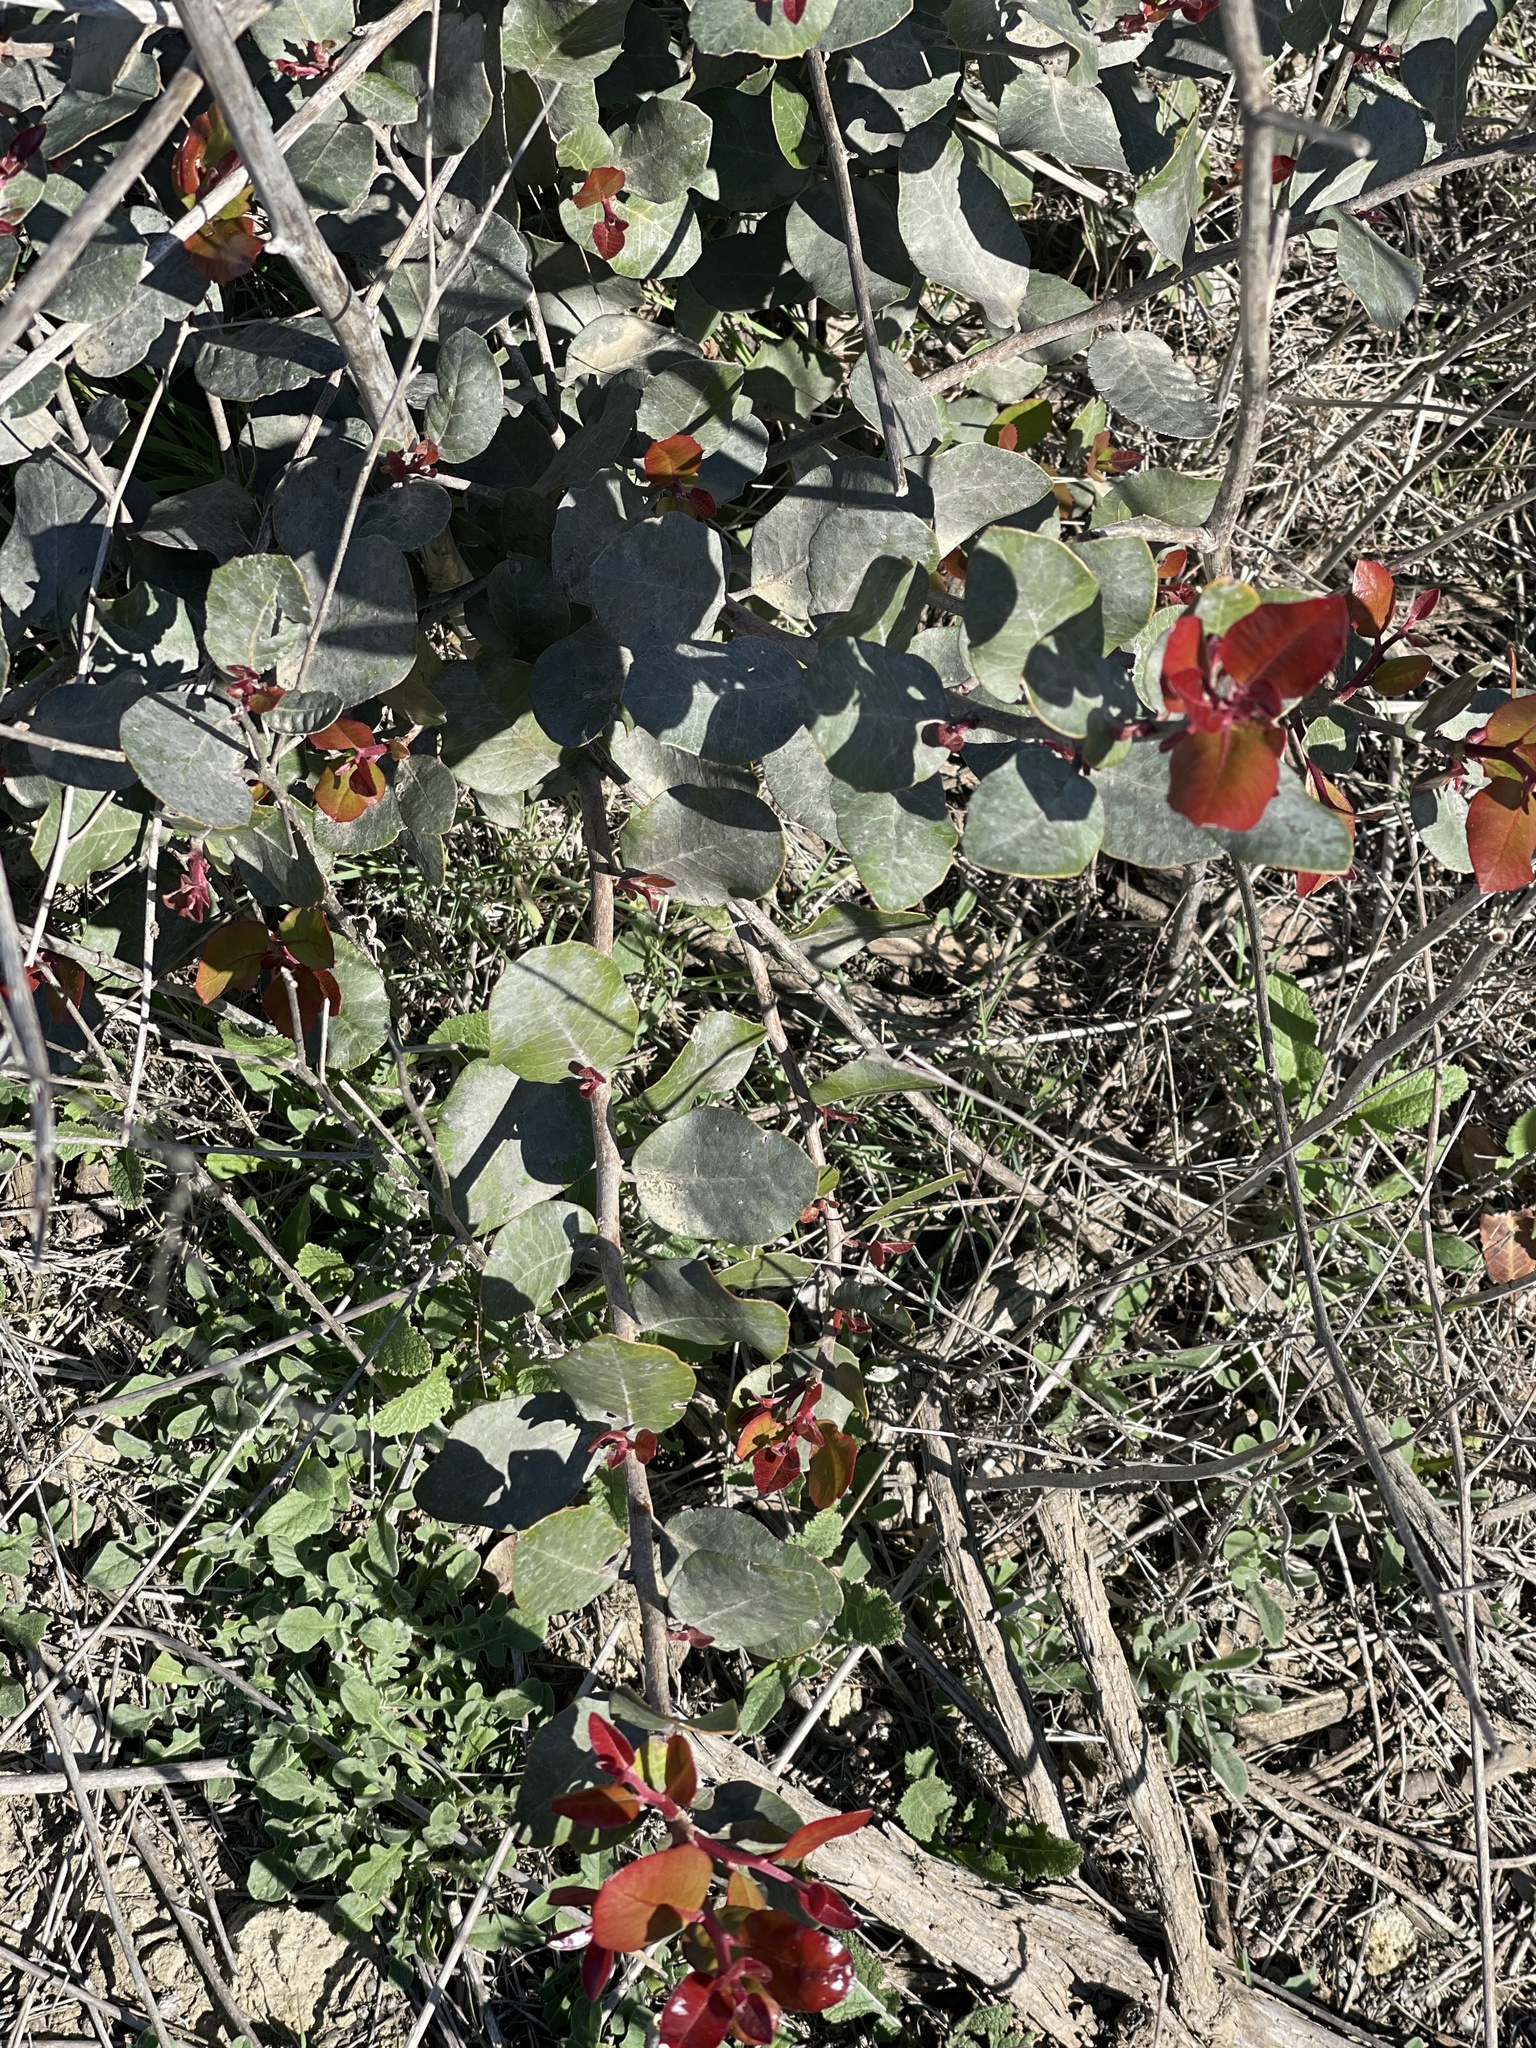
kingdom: Plantae
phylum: Tracheophyta
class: Magnoliopsida
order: Sapindales
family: Anacardiaceae
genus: Rhus
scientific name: Rhus integrifolia
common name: Lemonade sumac
